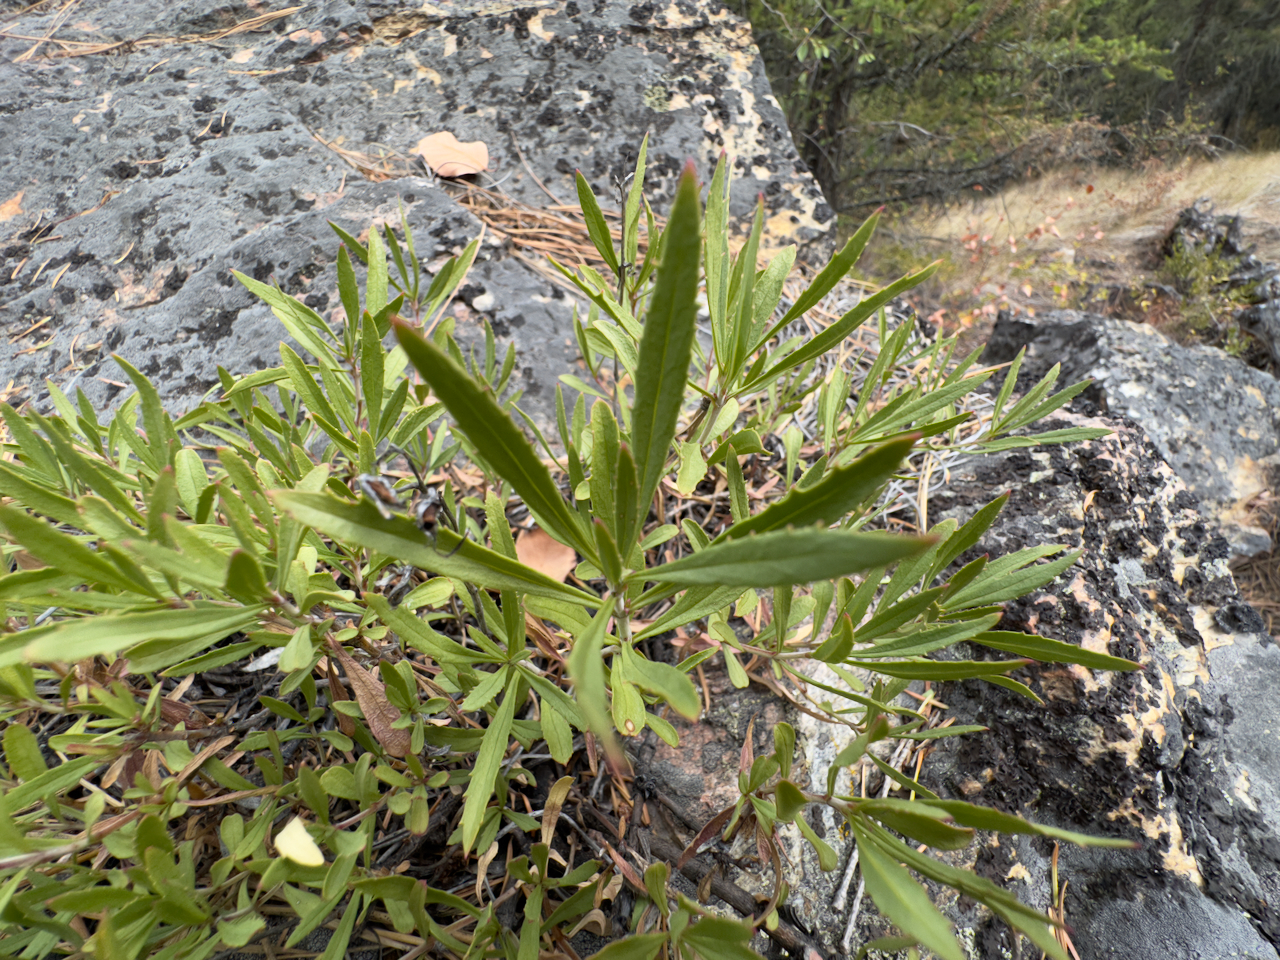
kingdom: Plantae
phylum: Tracheophyta
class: Magnoliopsida
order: Lamiales
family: Plantaginaceae
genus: Penstemon
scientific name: Penstemon fruticosus
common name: Bush penstemon
